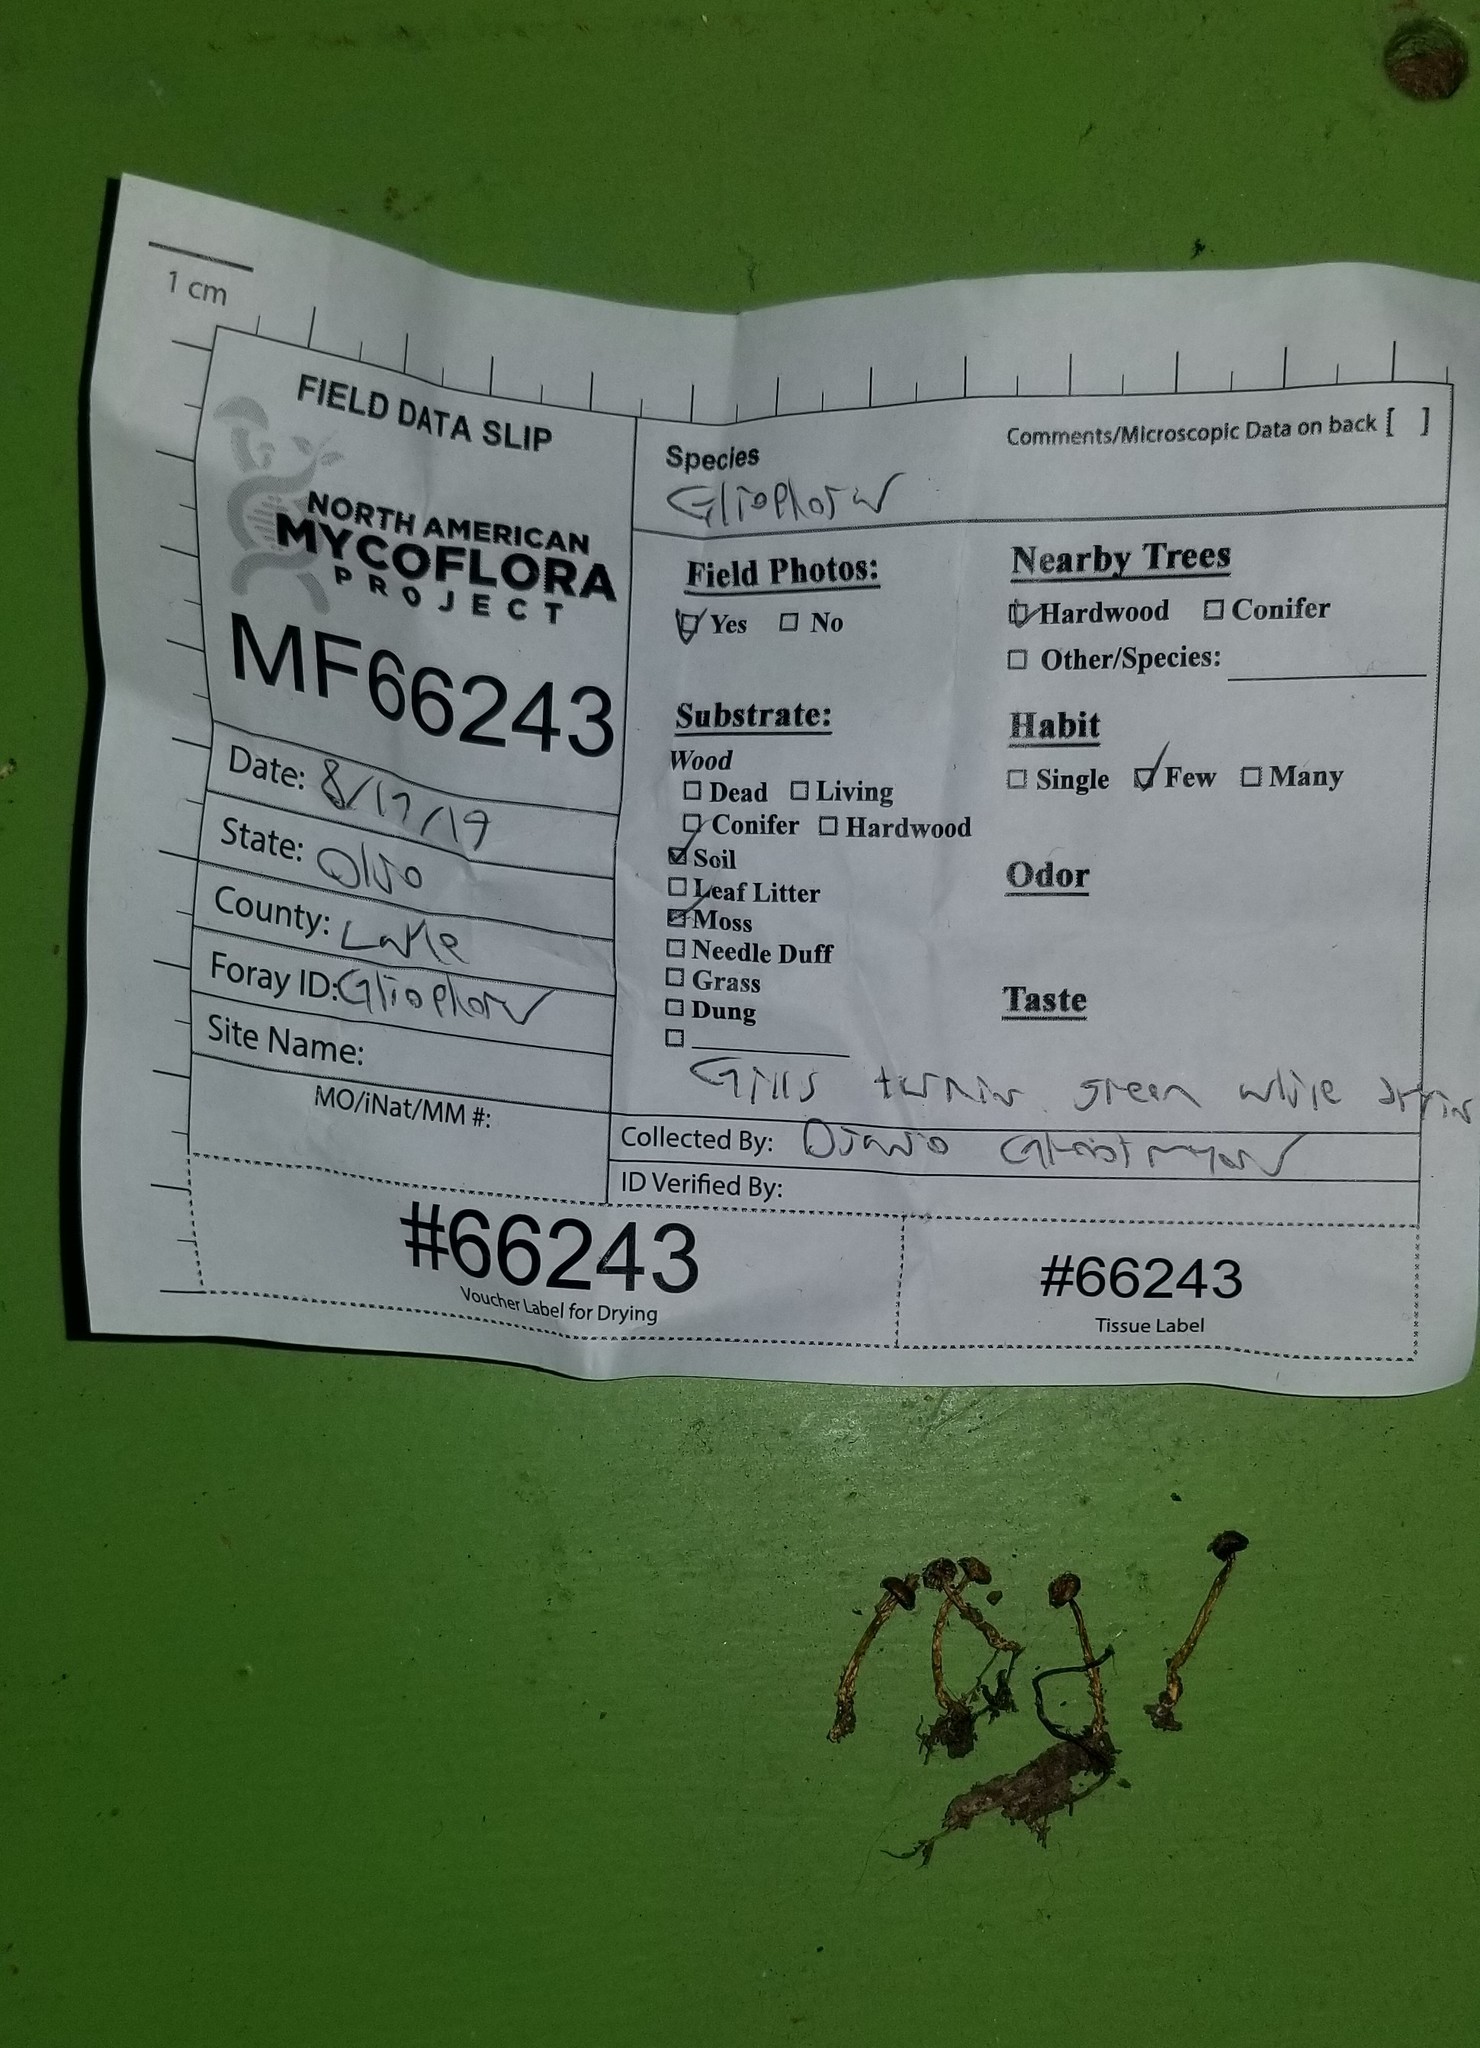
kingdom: Fungi
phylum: Basidiomycota
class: Agaricomycetes
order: Agaricales
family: Hygrophoraceae
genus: Gliophorus
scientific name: Gliophorus laetus
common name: Heath waxcap
